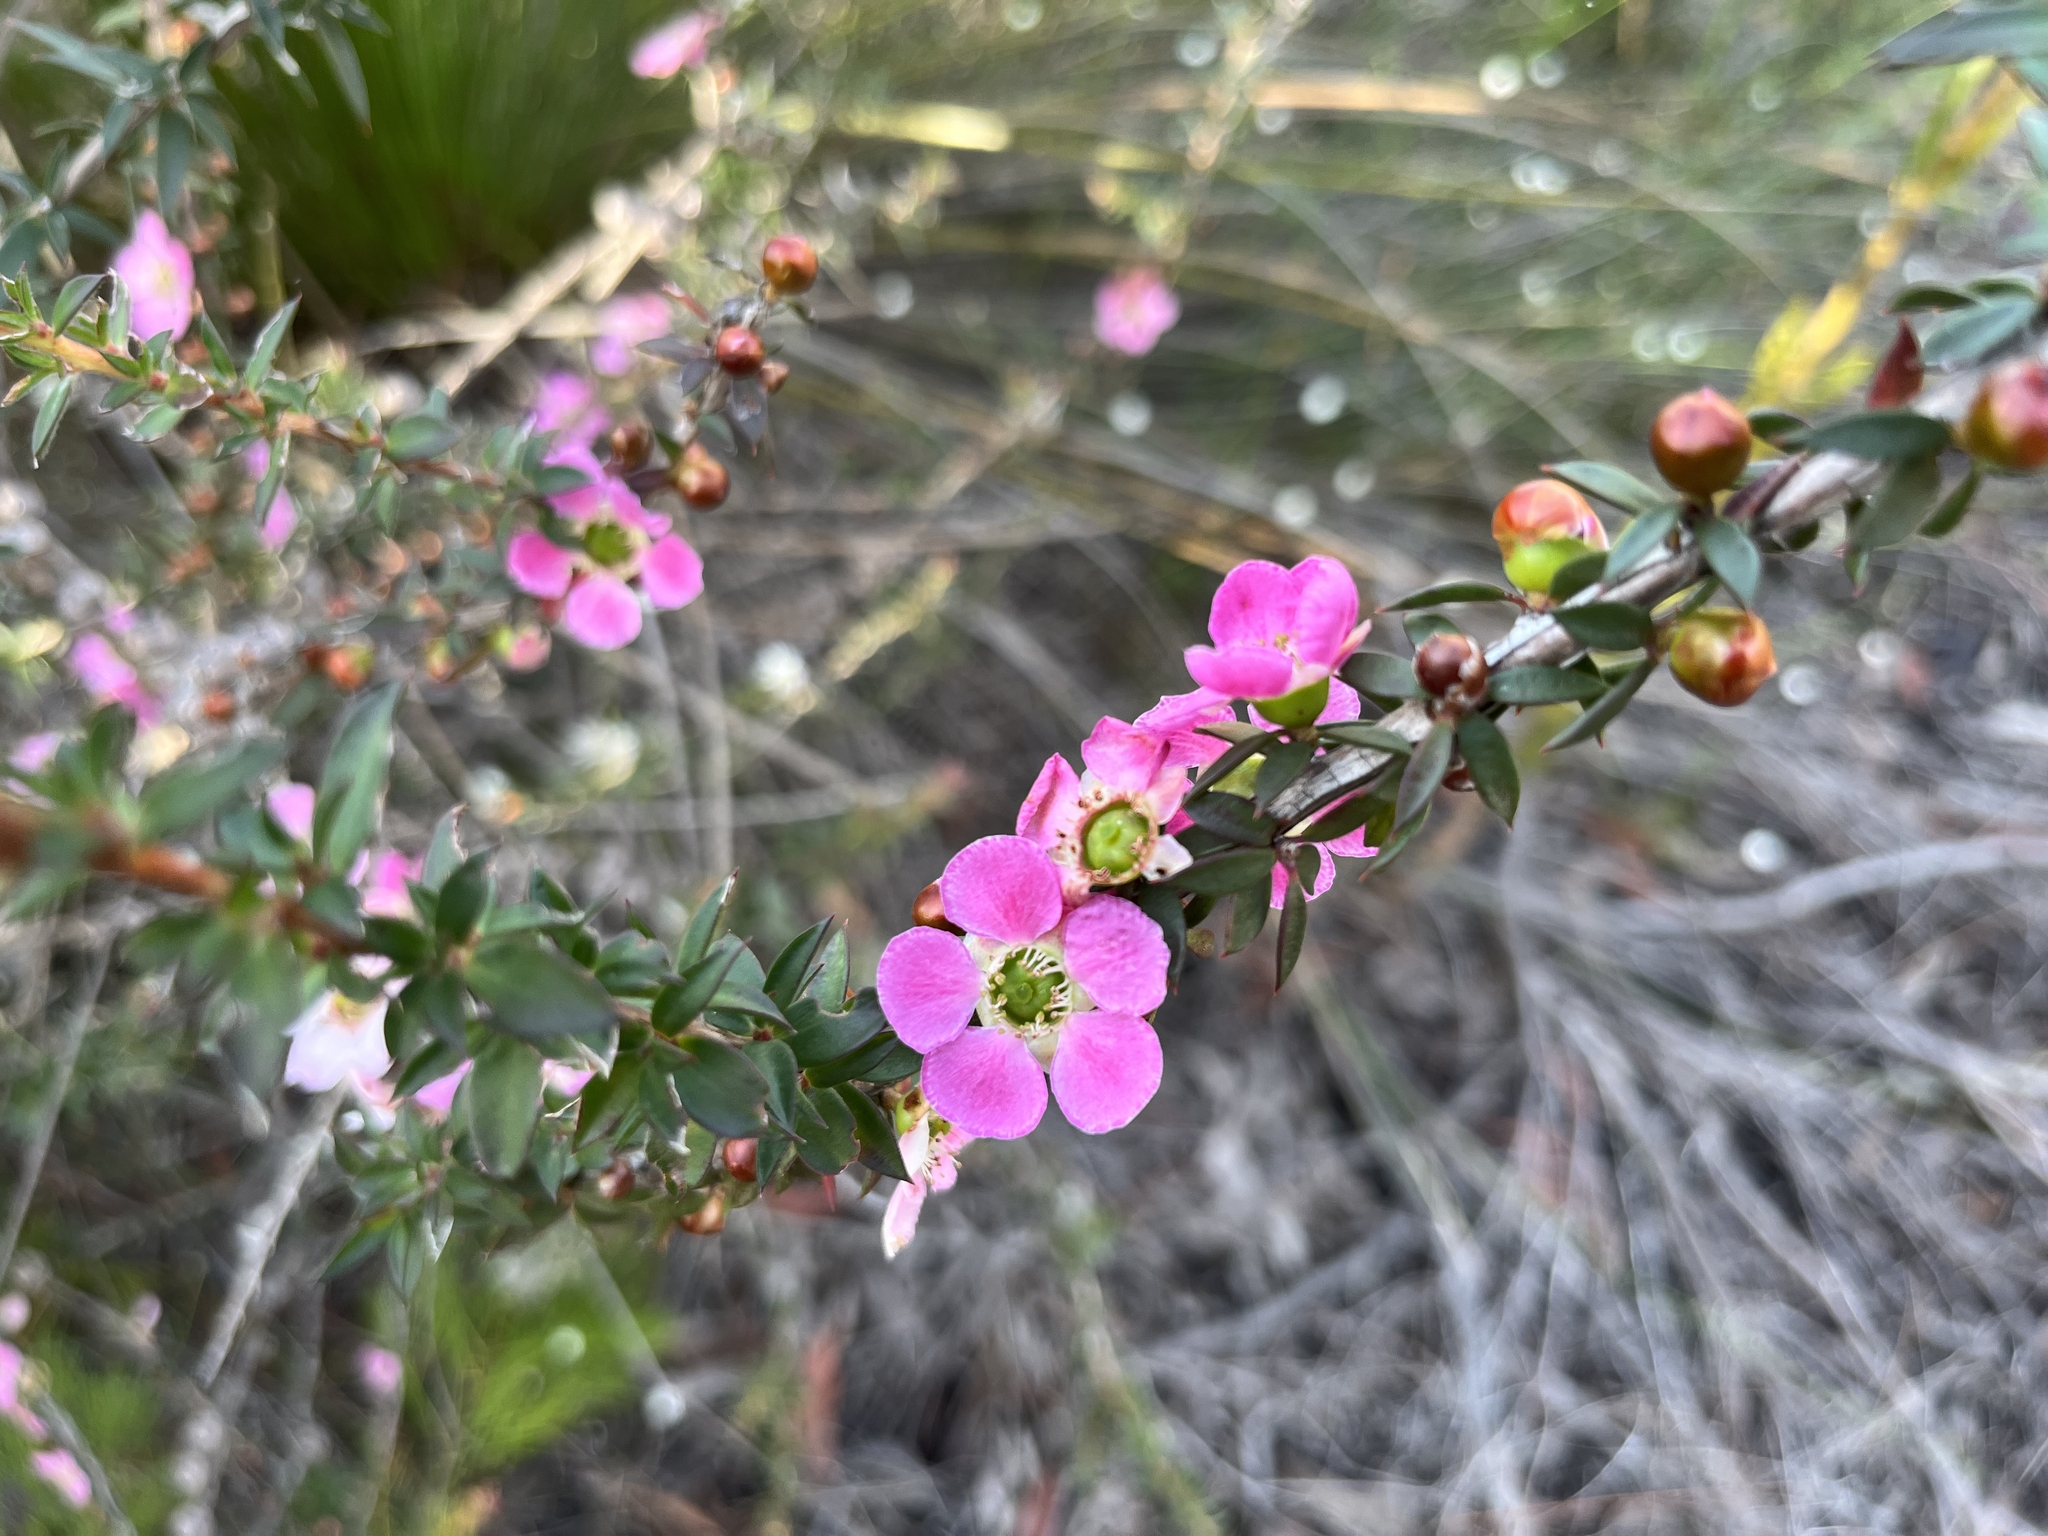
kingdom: Plantae
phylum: Tracheophyta
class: Magnoliopsida
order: Myrtales
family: Myrtaceae
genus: Leptospermum
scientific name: Leptospermum squarrosum
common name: Peach-blossom teatree
